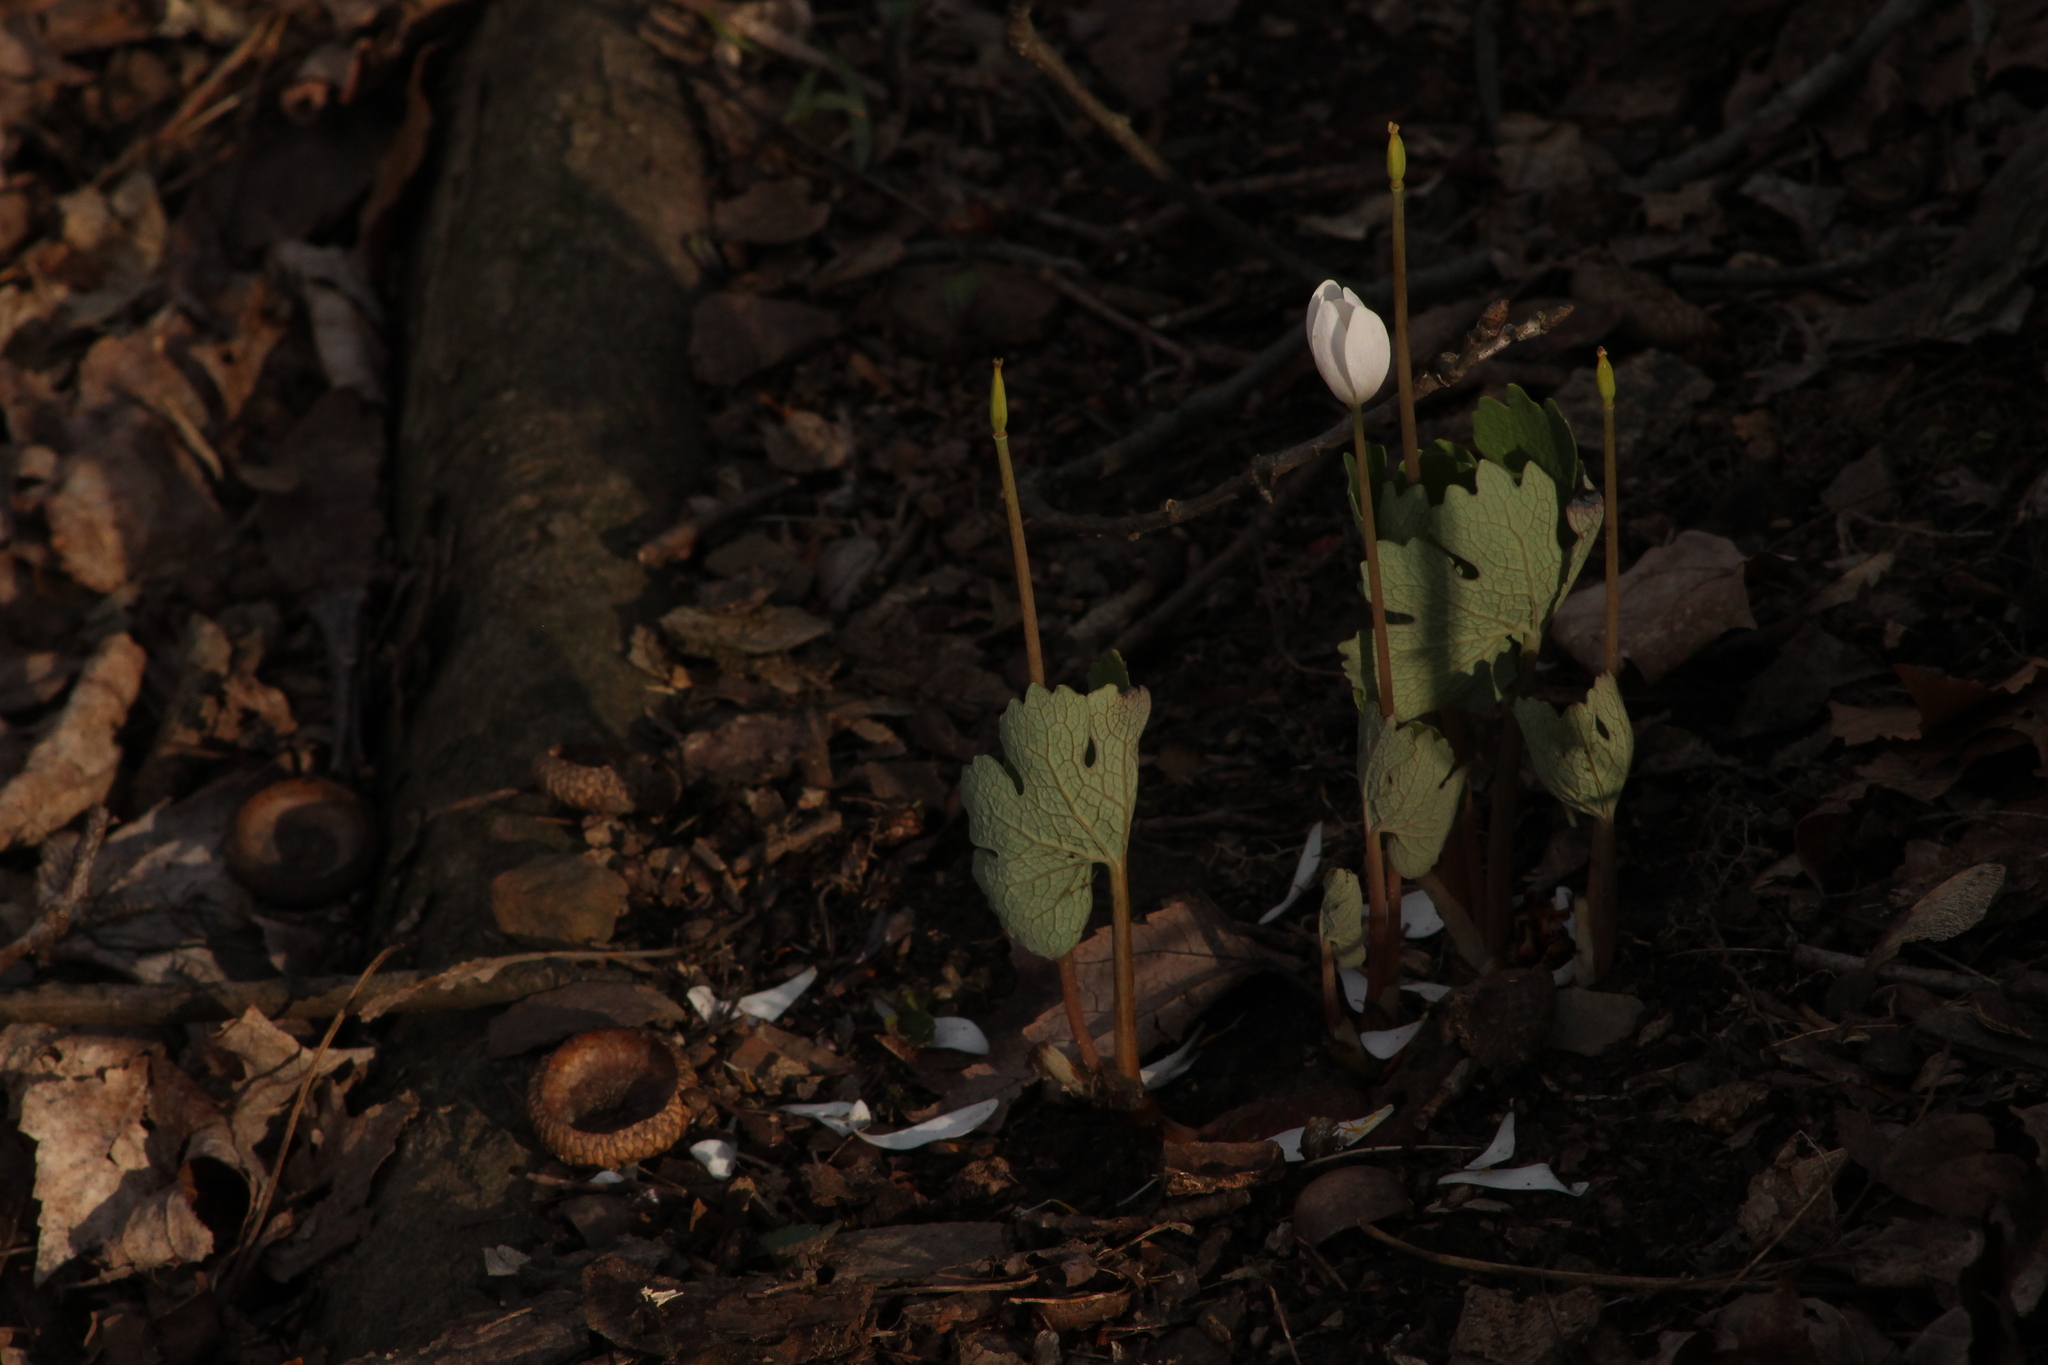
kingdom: Plantae
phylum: Tracheophyta
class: Magnoliopsida
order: Ranunculales
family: Papaveraceae
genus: Sanguinaria
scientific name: Sanguinaria canadensis
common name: Bloodroot
